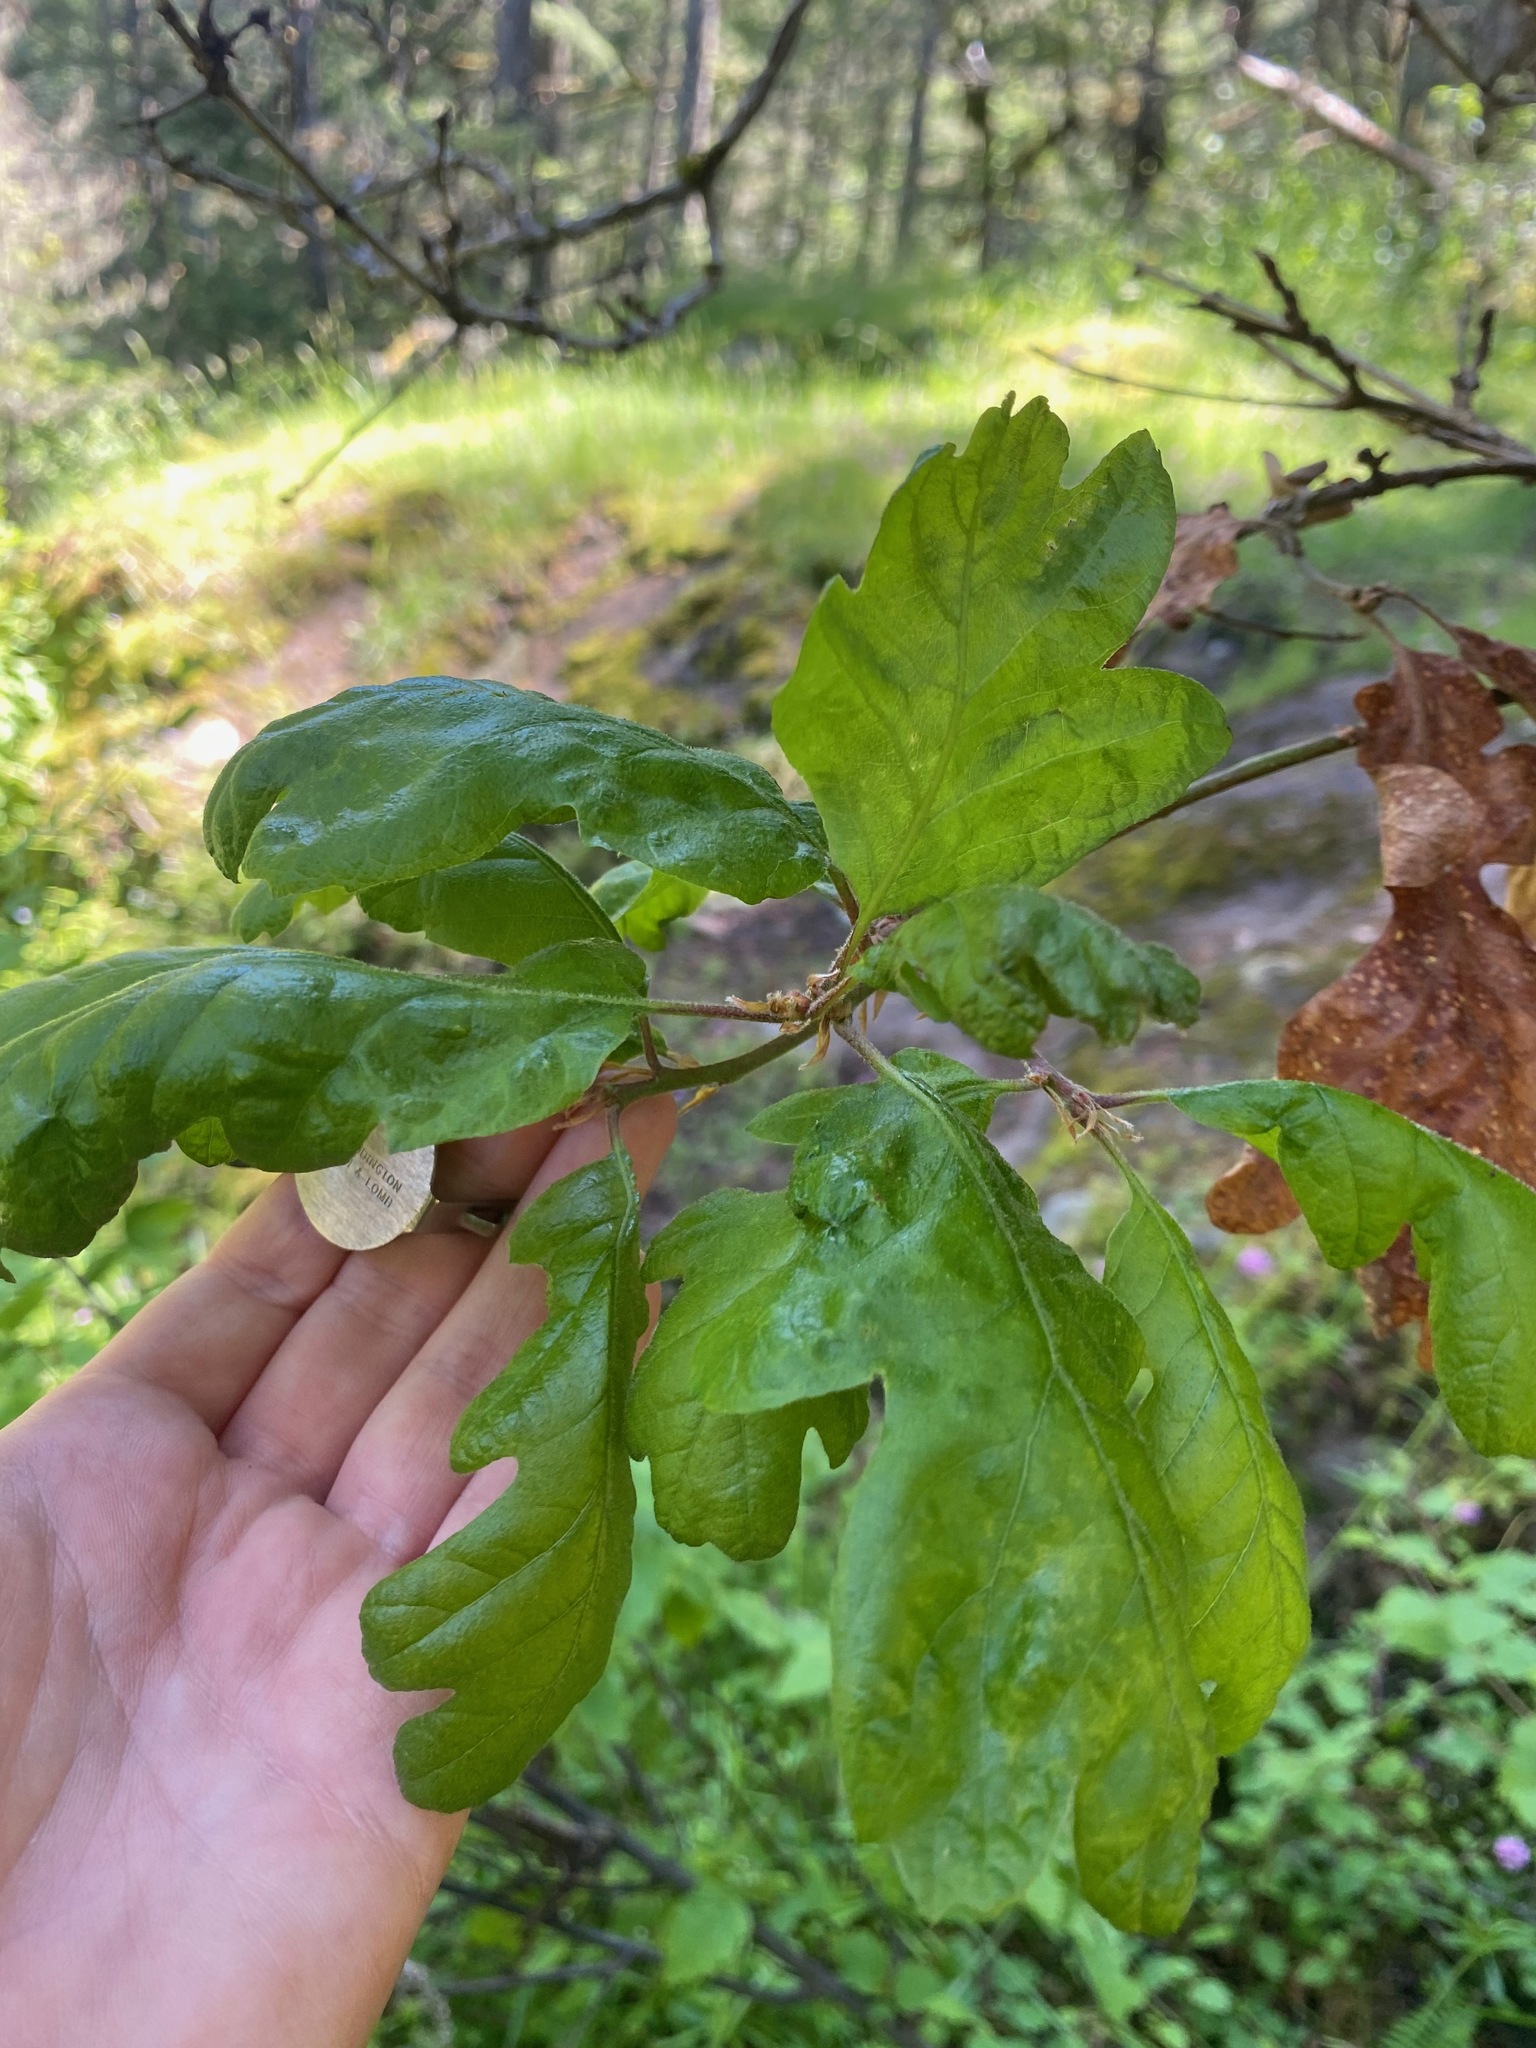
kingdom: Plantae
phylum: Tracheophyta
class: Magnoliopsida
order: Fagales
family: Fagaceae
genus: Quercus
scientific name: Quercus garryana
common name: Garry oak
